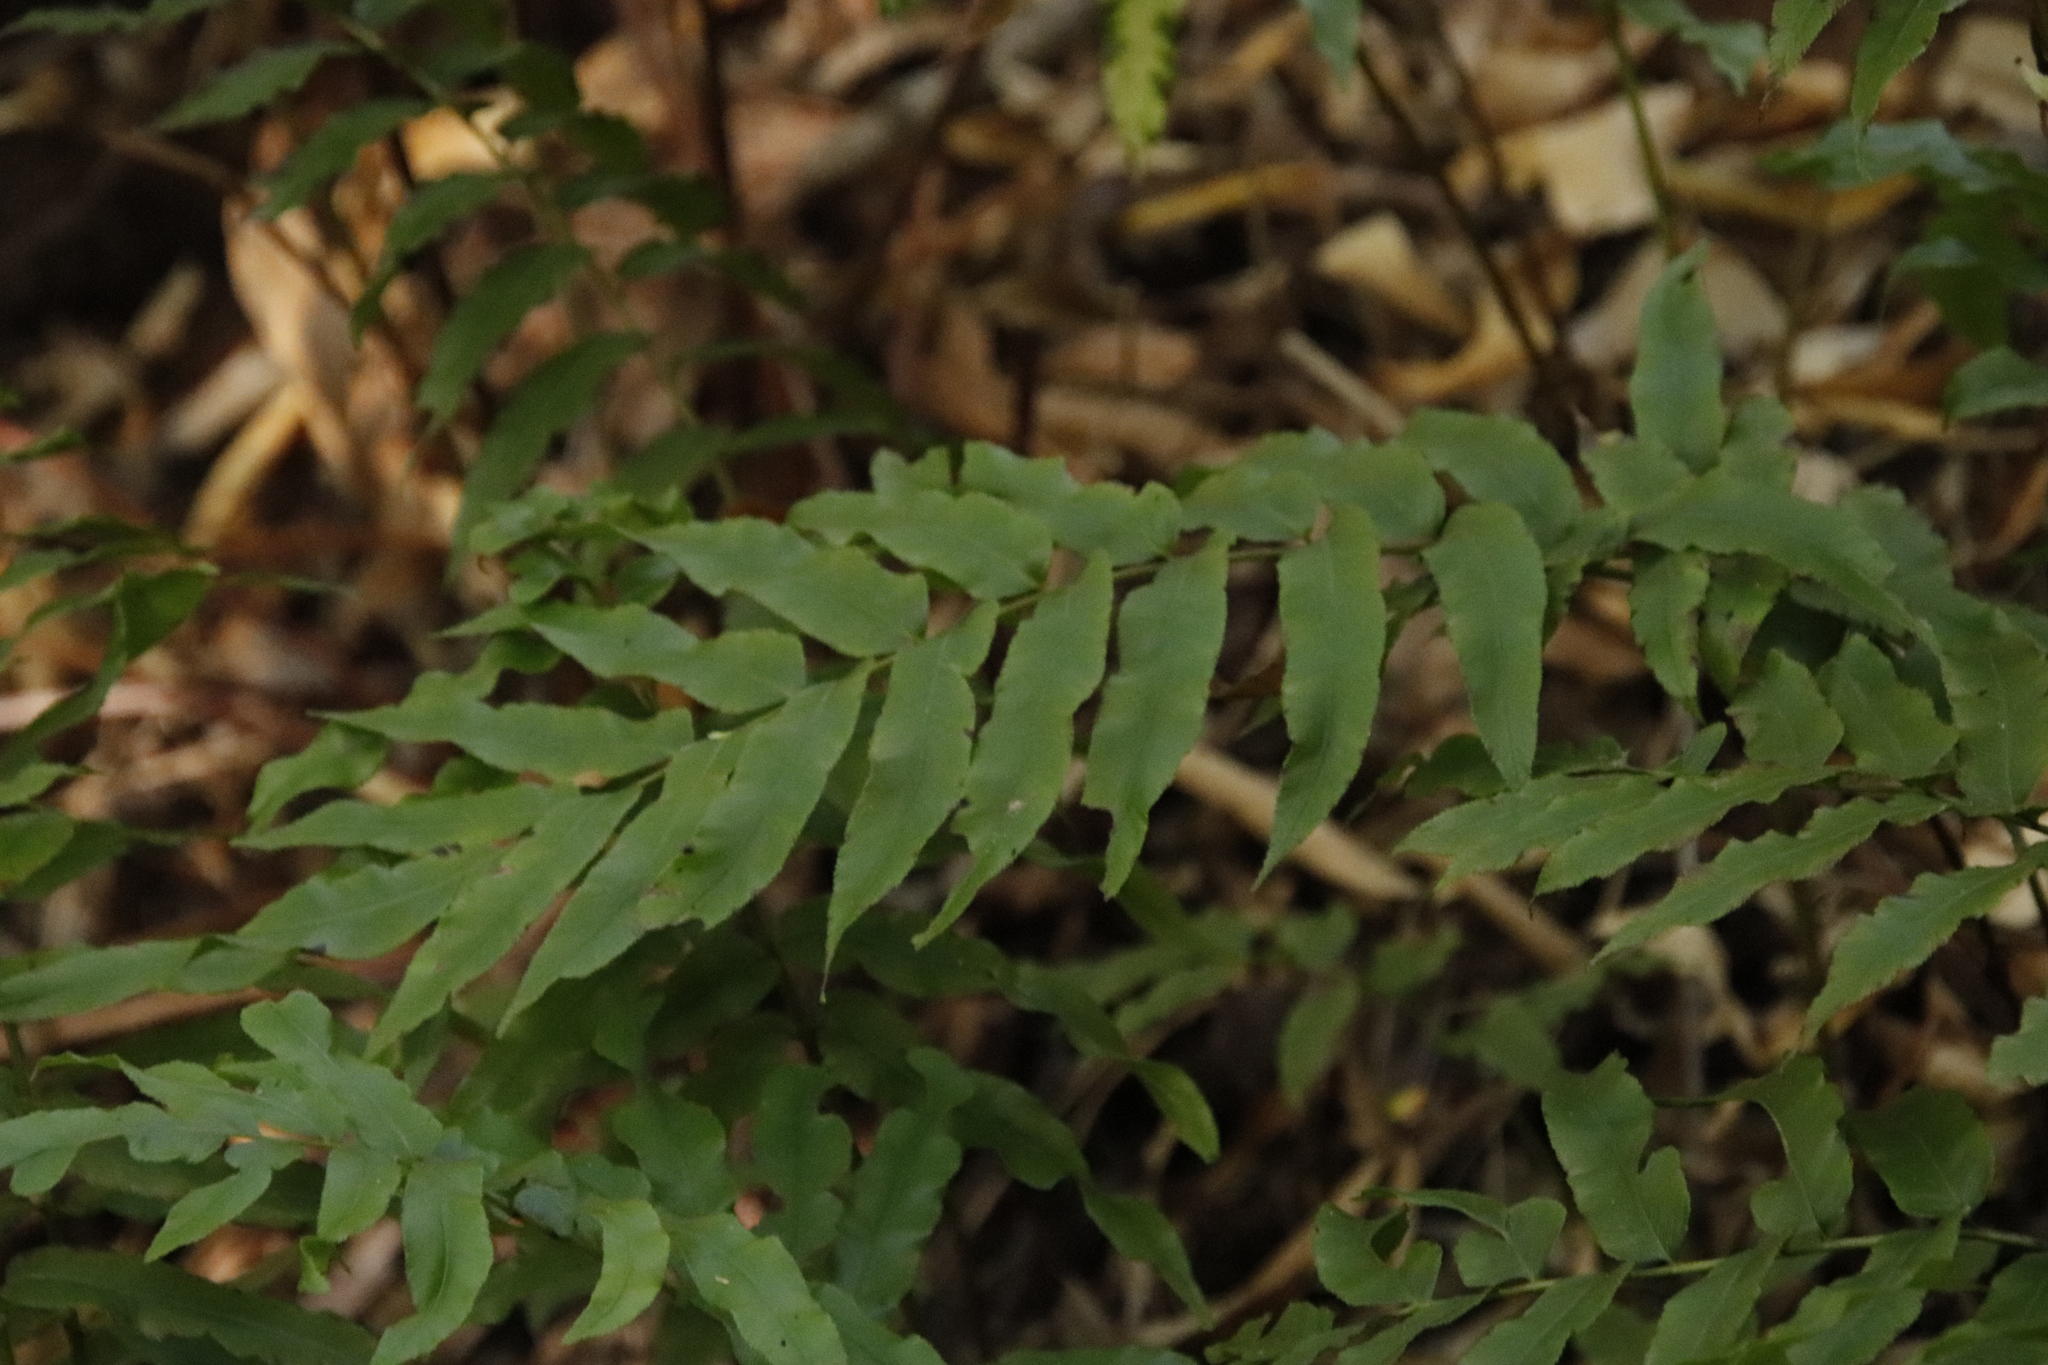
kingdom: Plantae
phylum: Tracheophyta
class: Polypodiopsida
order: Polypodiales
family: Blechnaceae
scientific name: Blechnaceae
